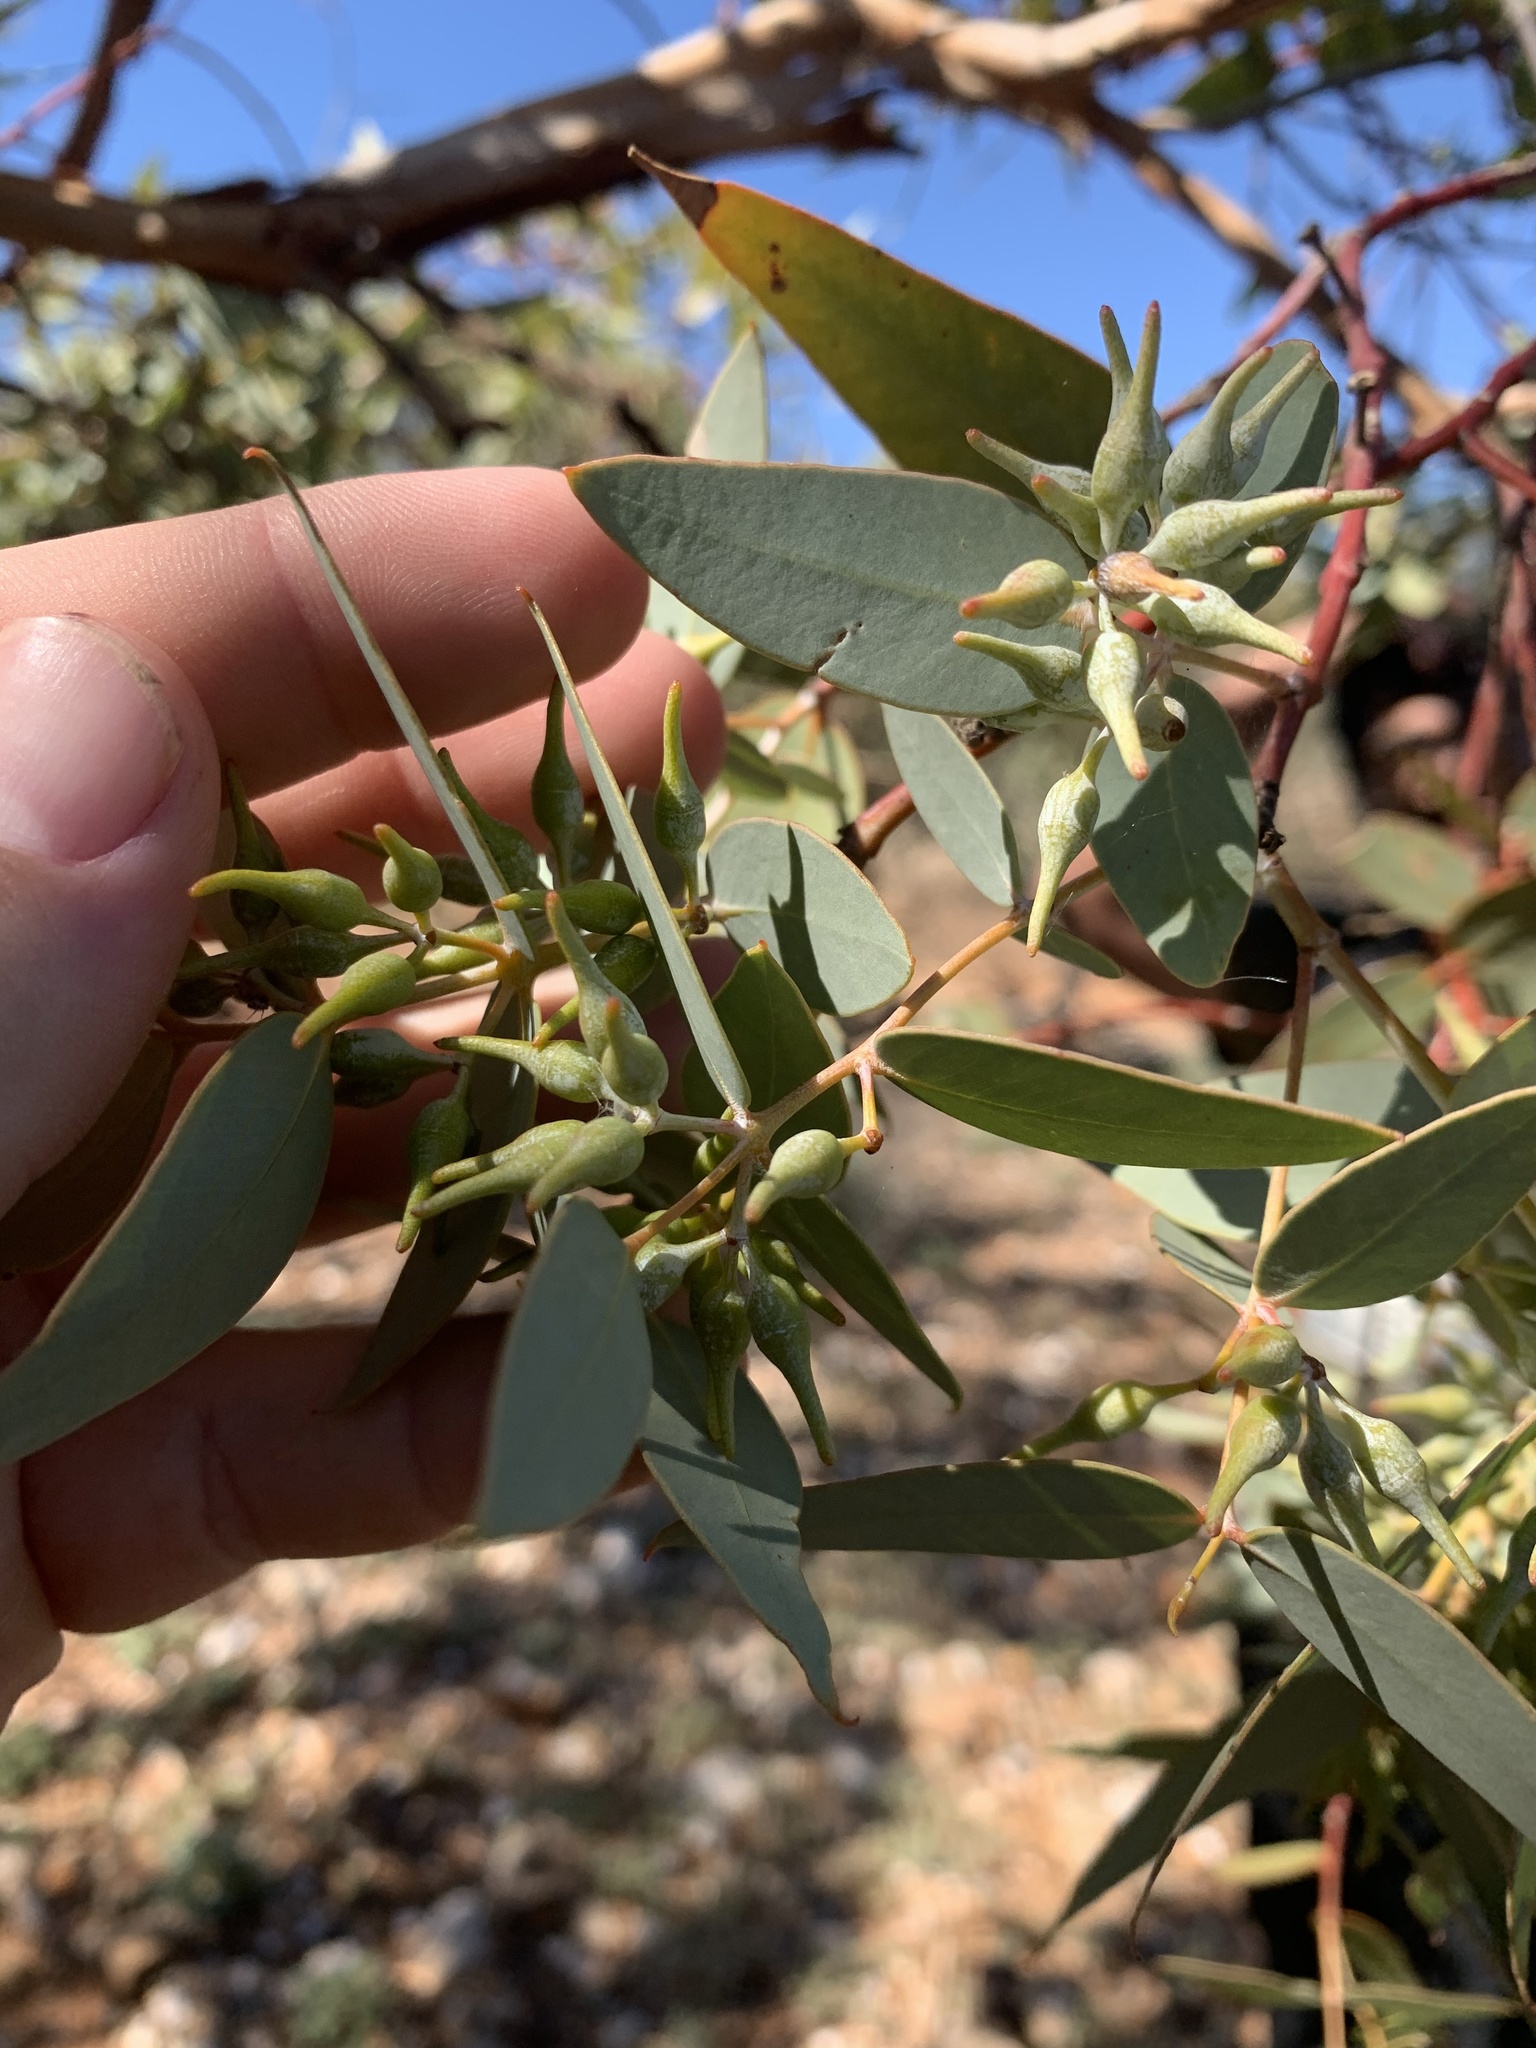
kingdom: Plantae
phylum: Tracheophyta
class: Magnoliopsida
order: Myrtales
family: Myrtaceae
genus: Eucalyptus
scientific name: Eucalyptus gillii
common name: Broken hill mallee
